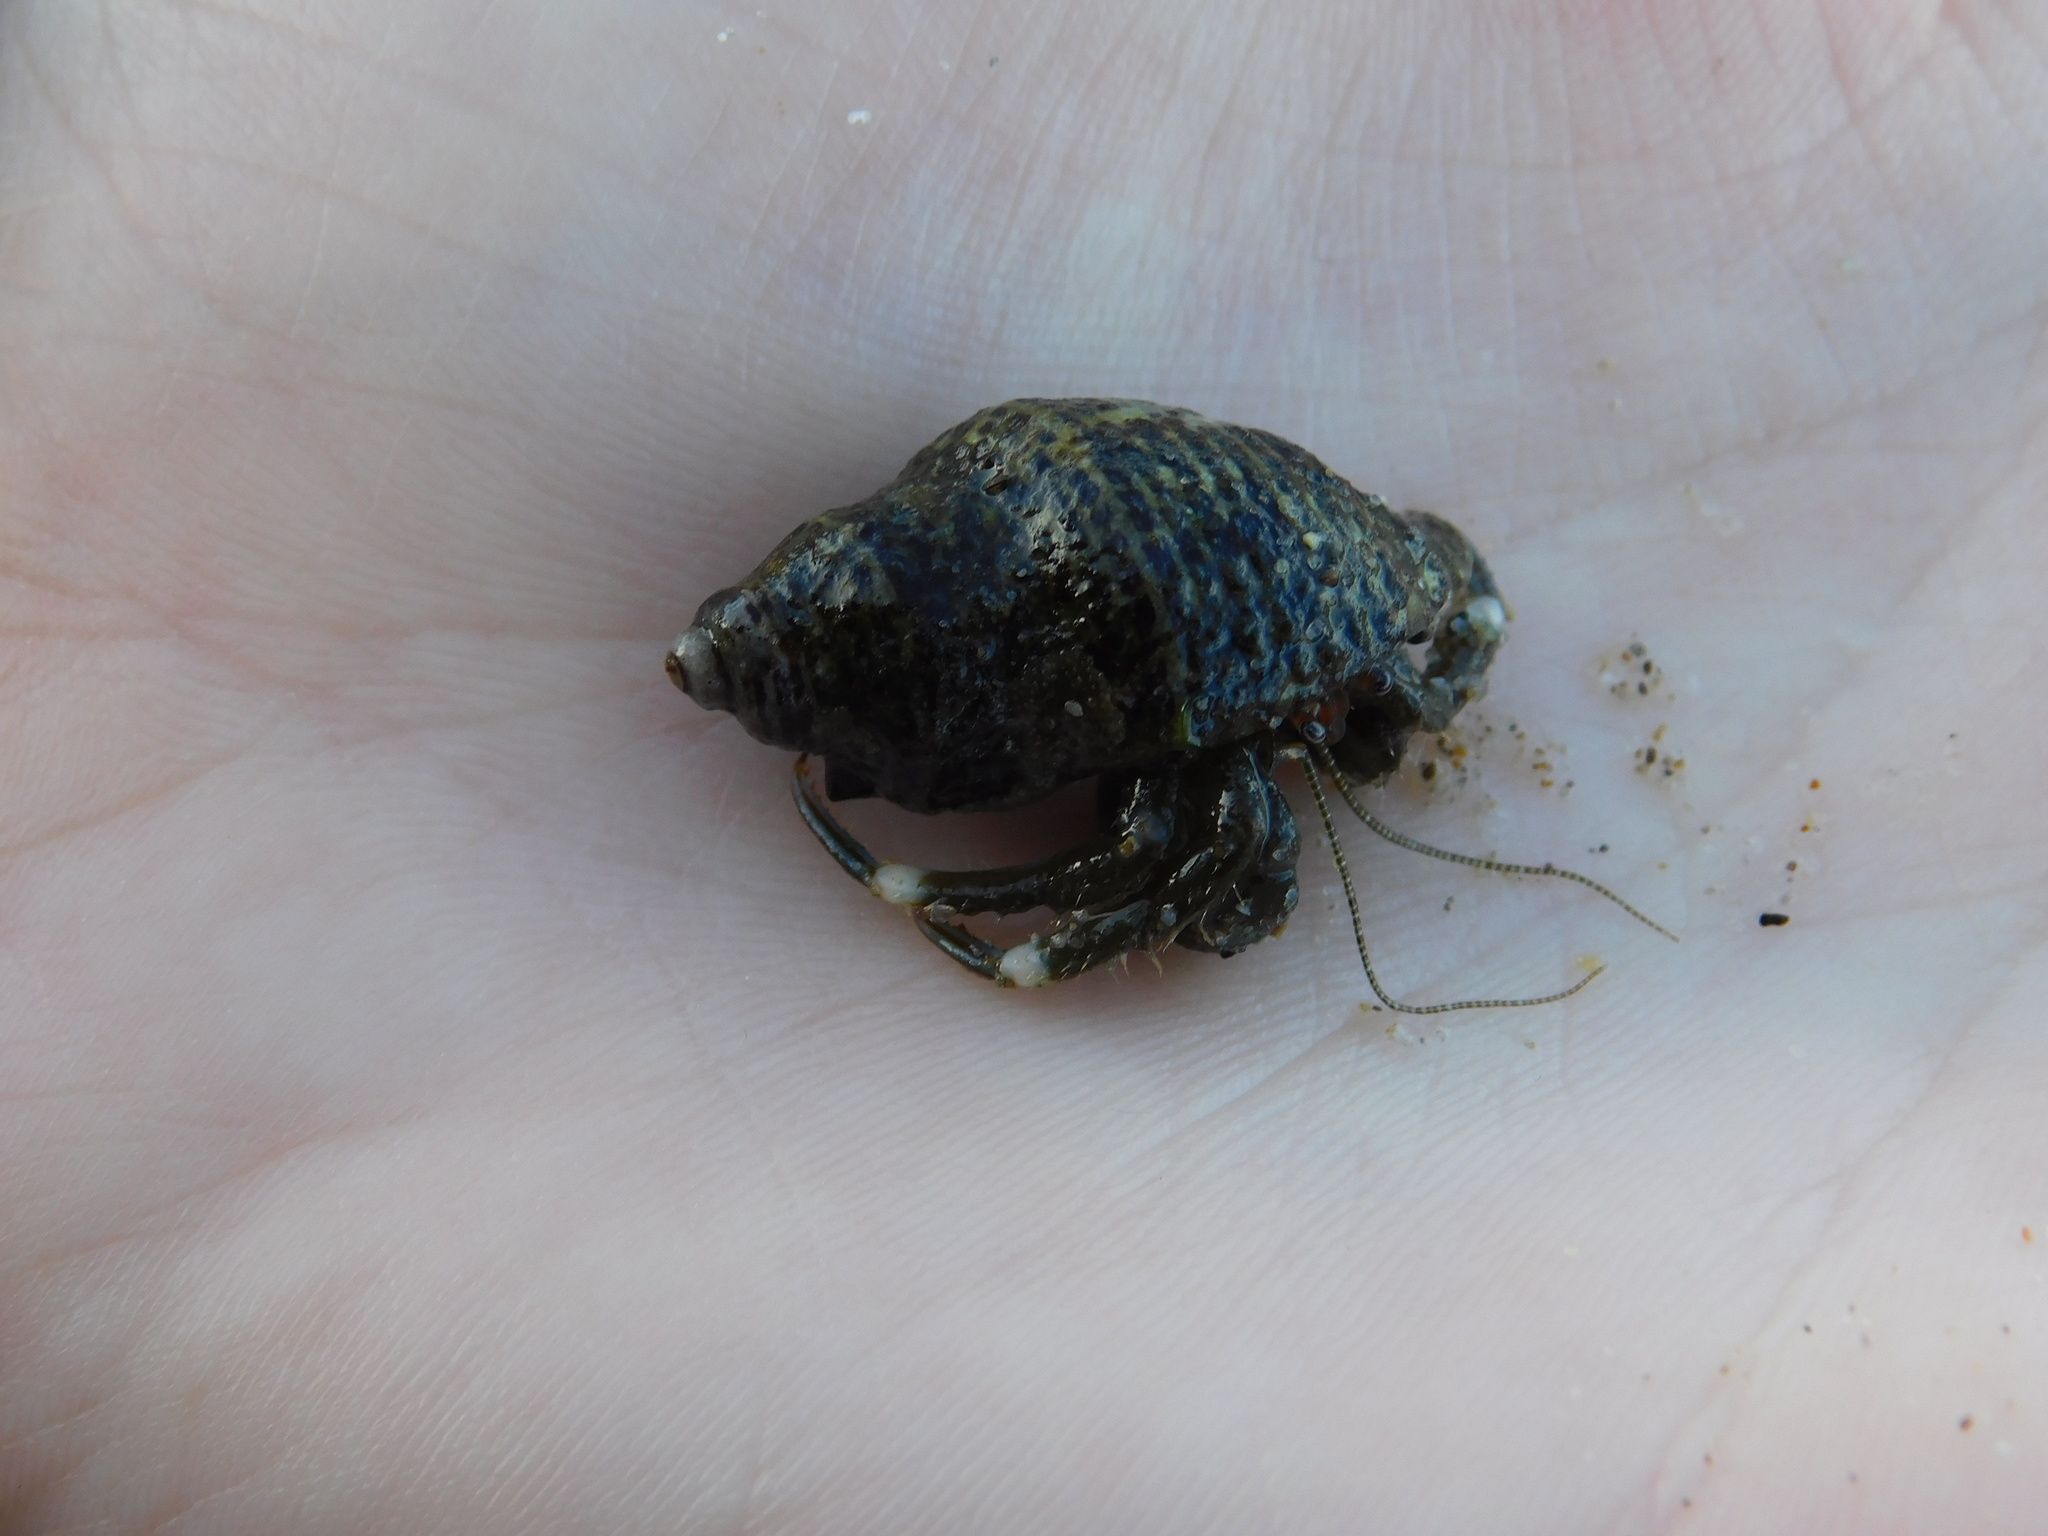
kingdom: Animalia
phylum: Arthropoda
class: Malacostraca
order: Decapoda
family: Paguridae
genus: Pagurus
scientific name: Pagurus venturensis
